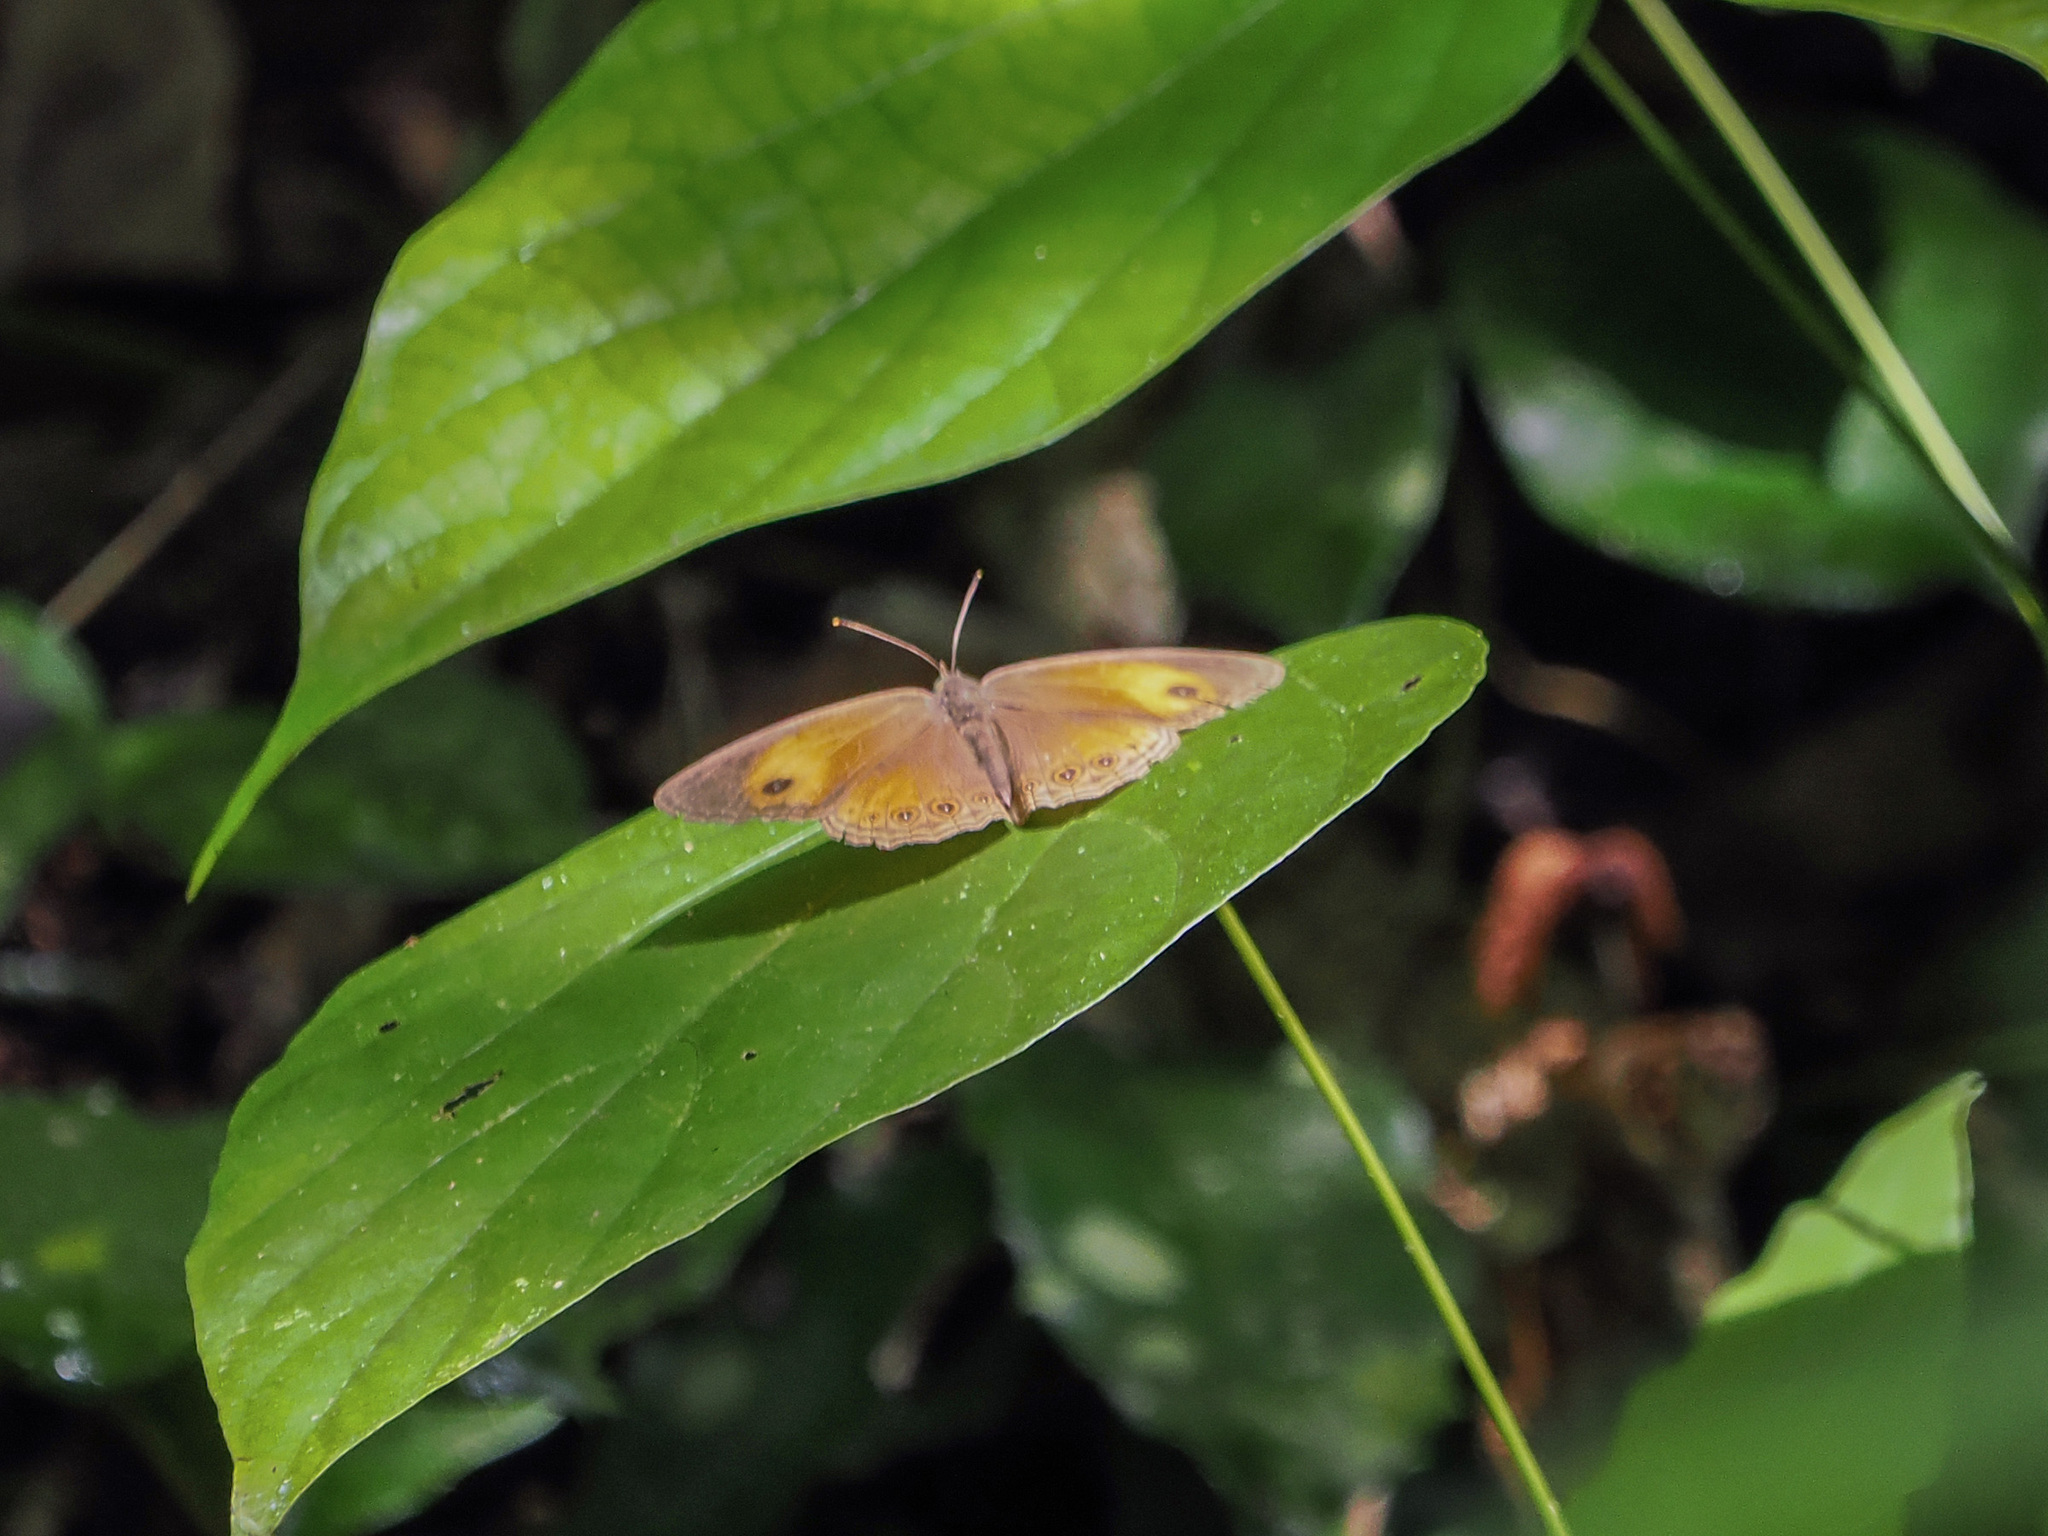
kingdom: Animalia
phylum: Arthropoda
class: Insecta
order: Lepidoptera
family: Nymphalidae
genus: Mycalesis
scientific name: Mycalesis itys
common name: Itys bush brown
